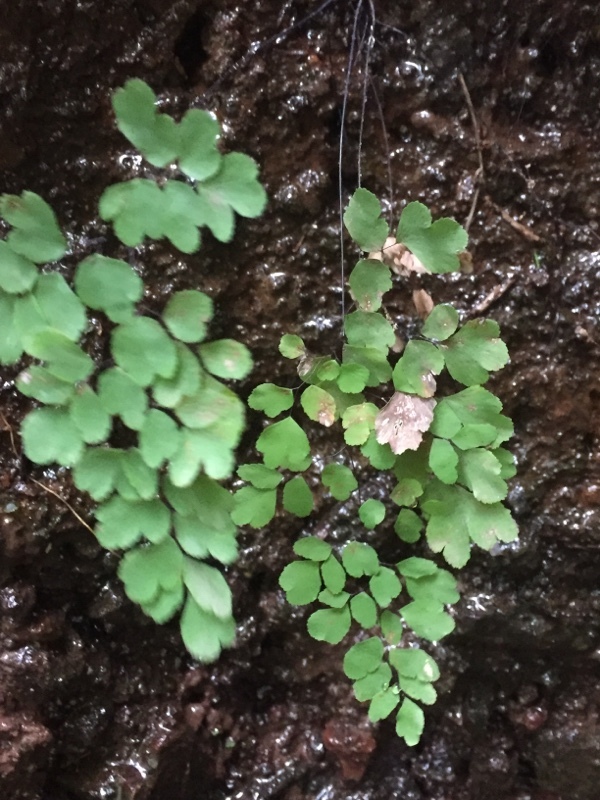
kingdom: Plantae
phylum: Tracheophyta
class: Polypodiopsida
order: Polypodiales
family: Pteridaceae
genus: Adiantum
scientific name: Adiantum capillus-veneris
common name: Maidenhair fern
